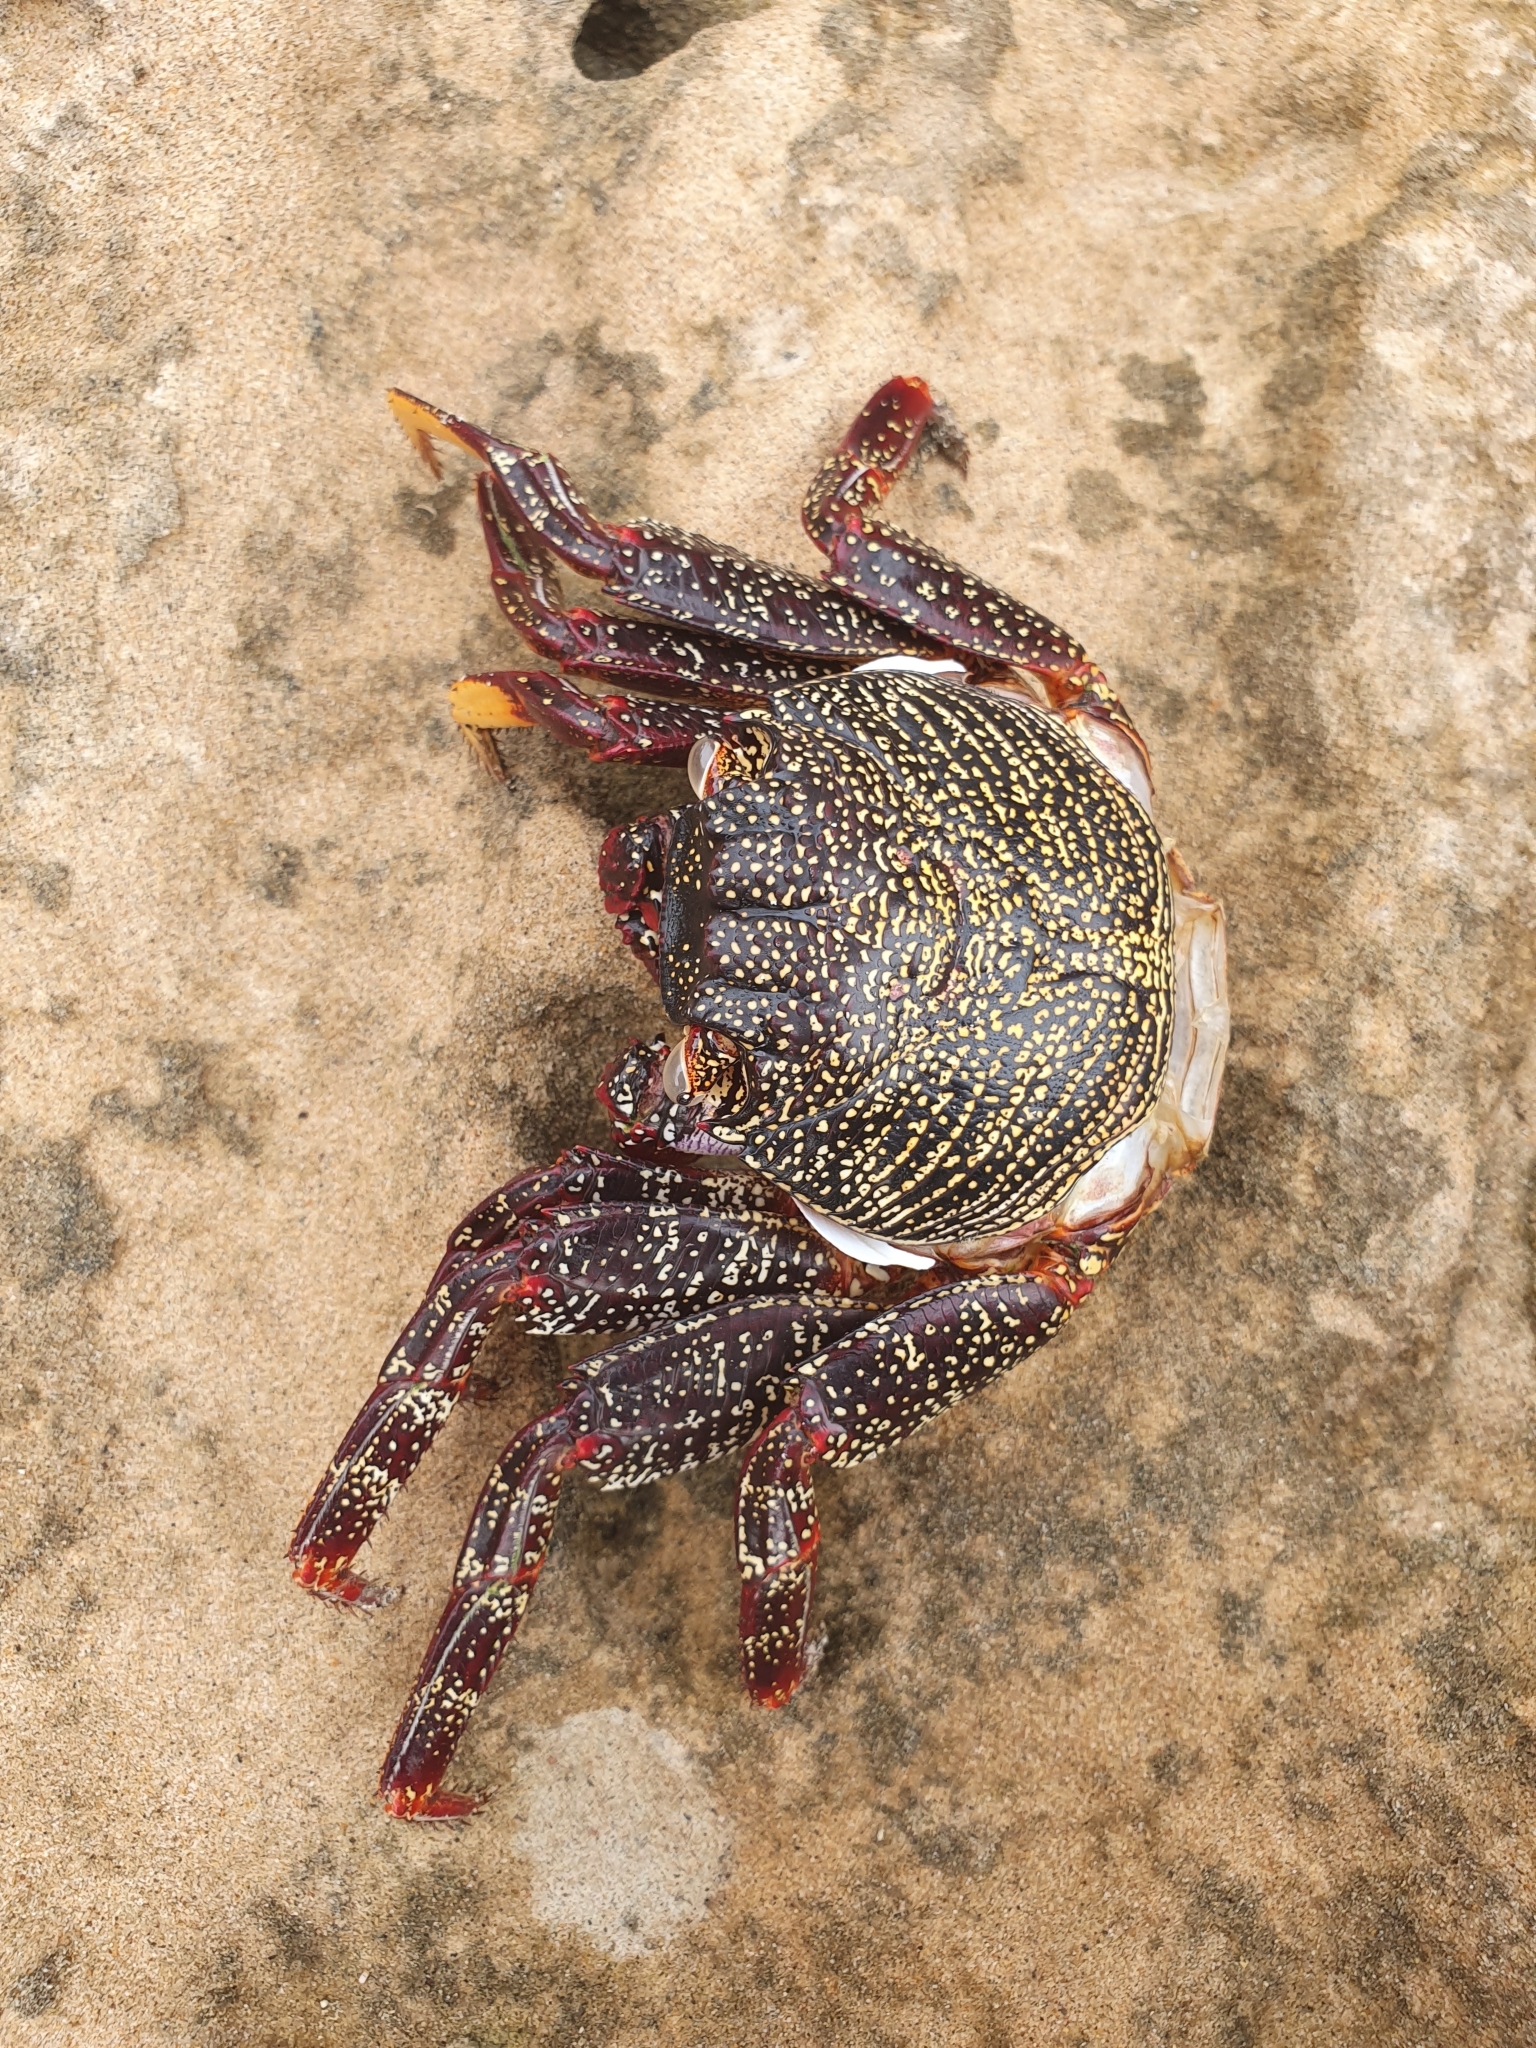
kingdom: Animalia
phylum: Arthropoda
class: Malacostraca
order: Decapoda
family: Grapsidae
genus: Grapsus
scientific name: Grapsus adscensionis
